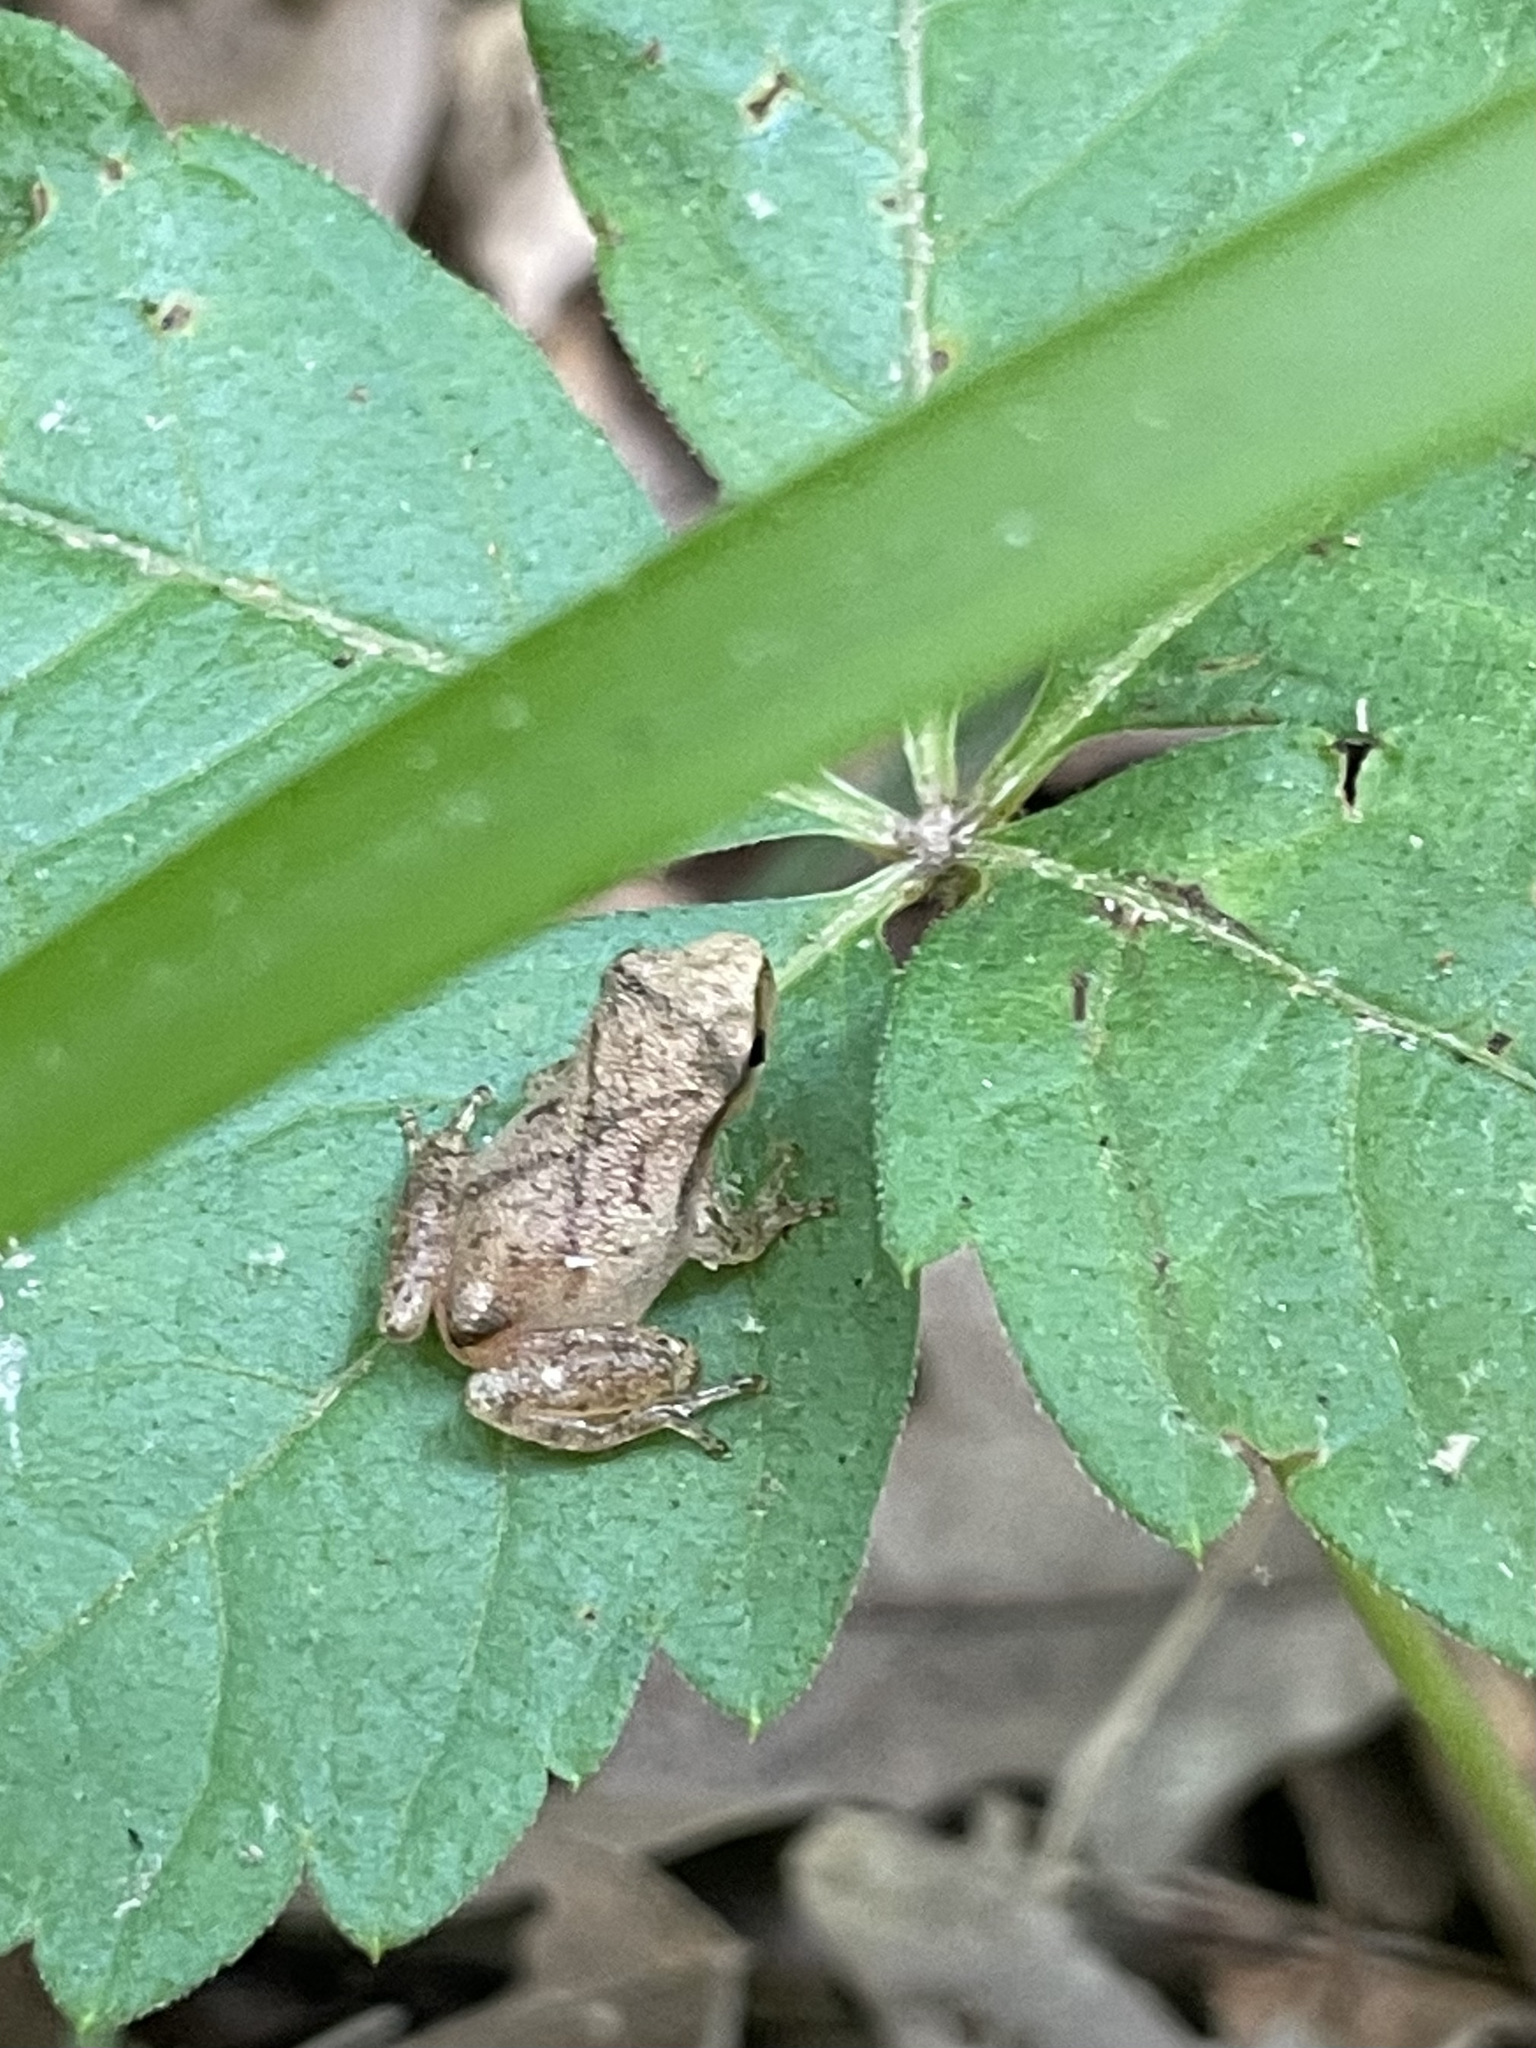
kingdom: Animalia
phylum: Chordata
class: Amphibia
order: Anura
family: Hylidae
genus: Pseudacris
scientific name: Pseudacris crucifer
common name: Spring peeper
